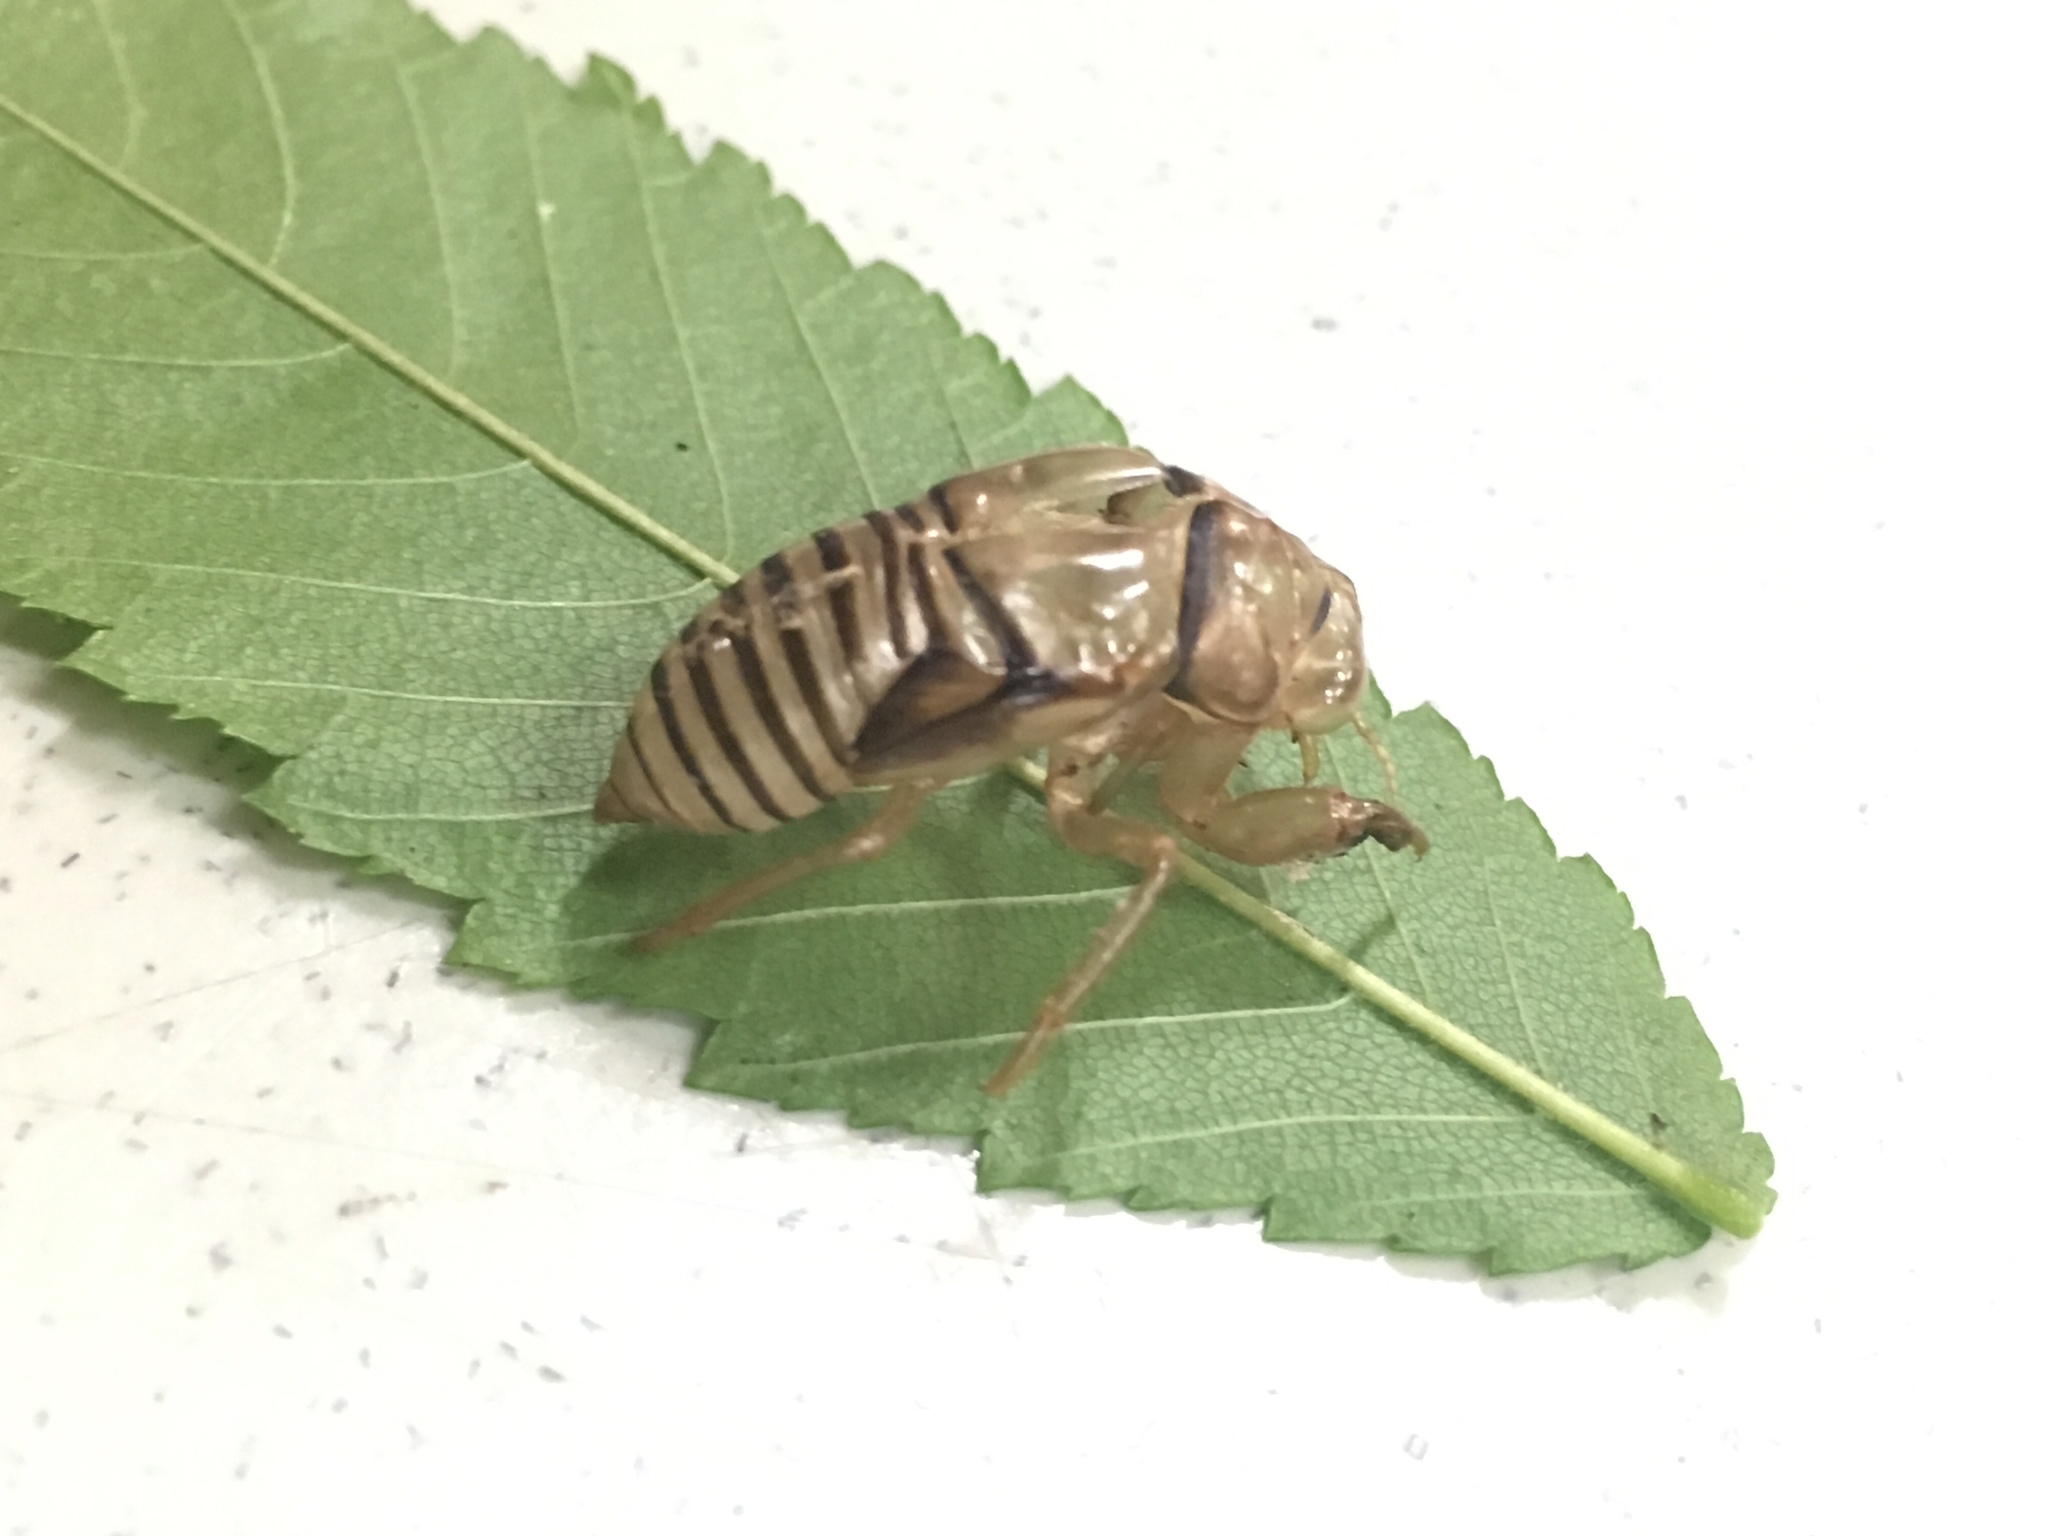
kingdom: Animalia
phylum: Arthropoda
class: Insecta
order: Hemiptera
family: Cicadidae
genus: Neocicada
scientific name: Neocicada hieroglyphica
